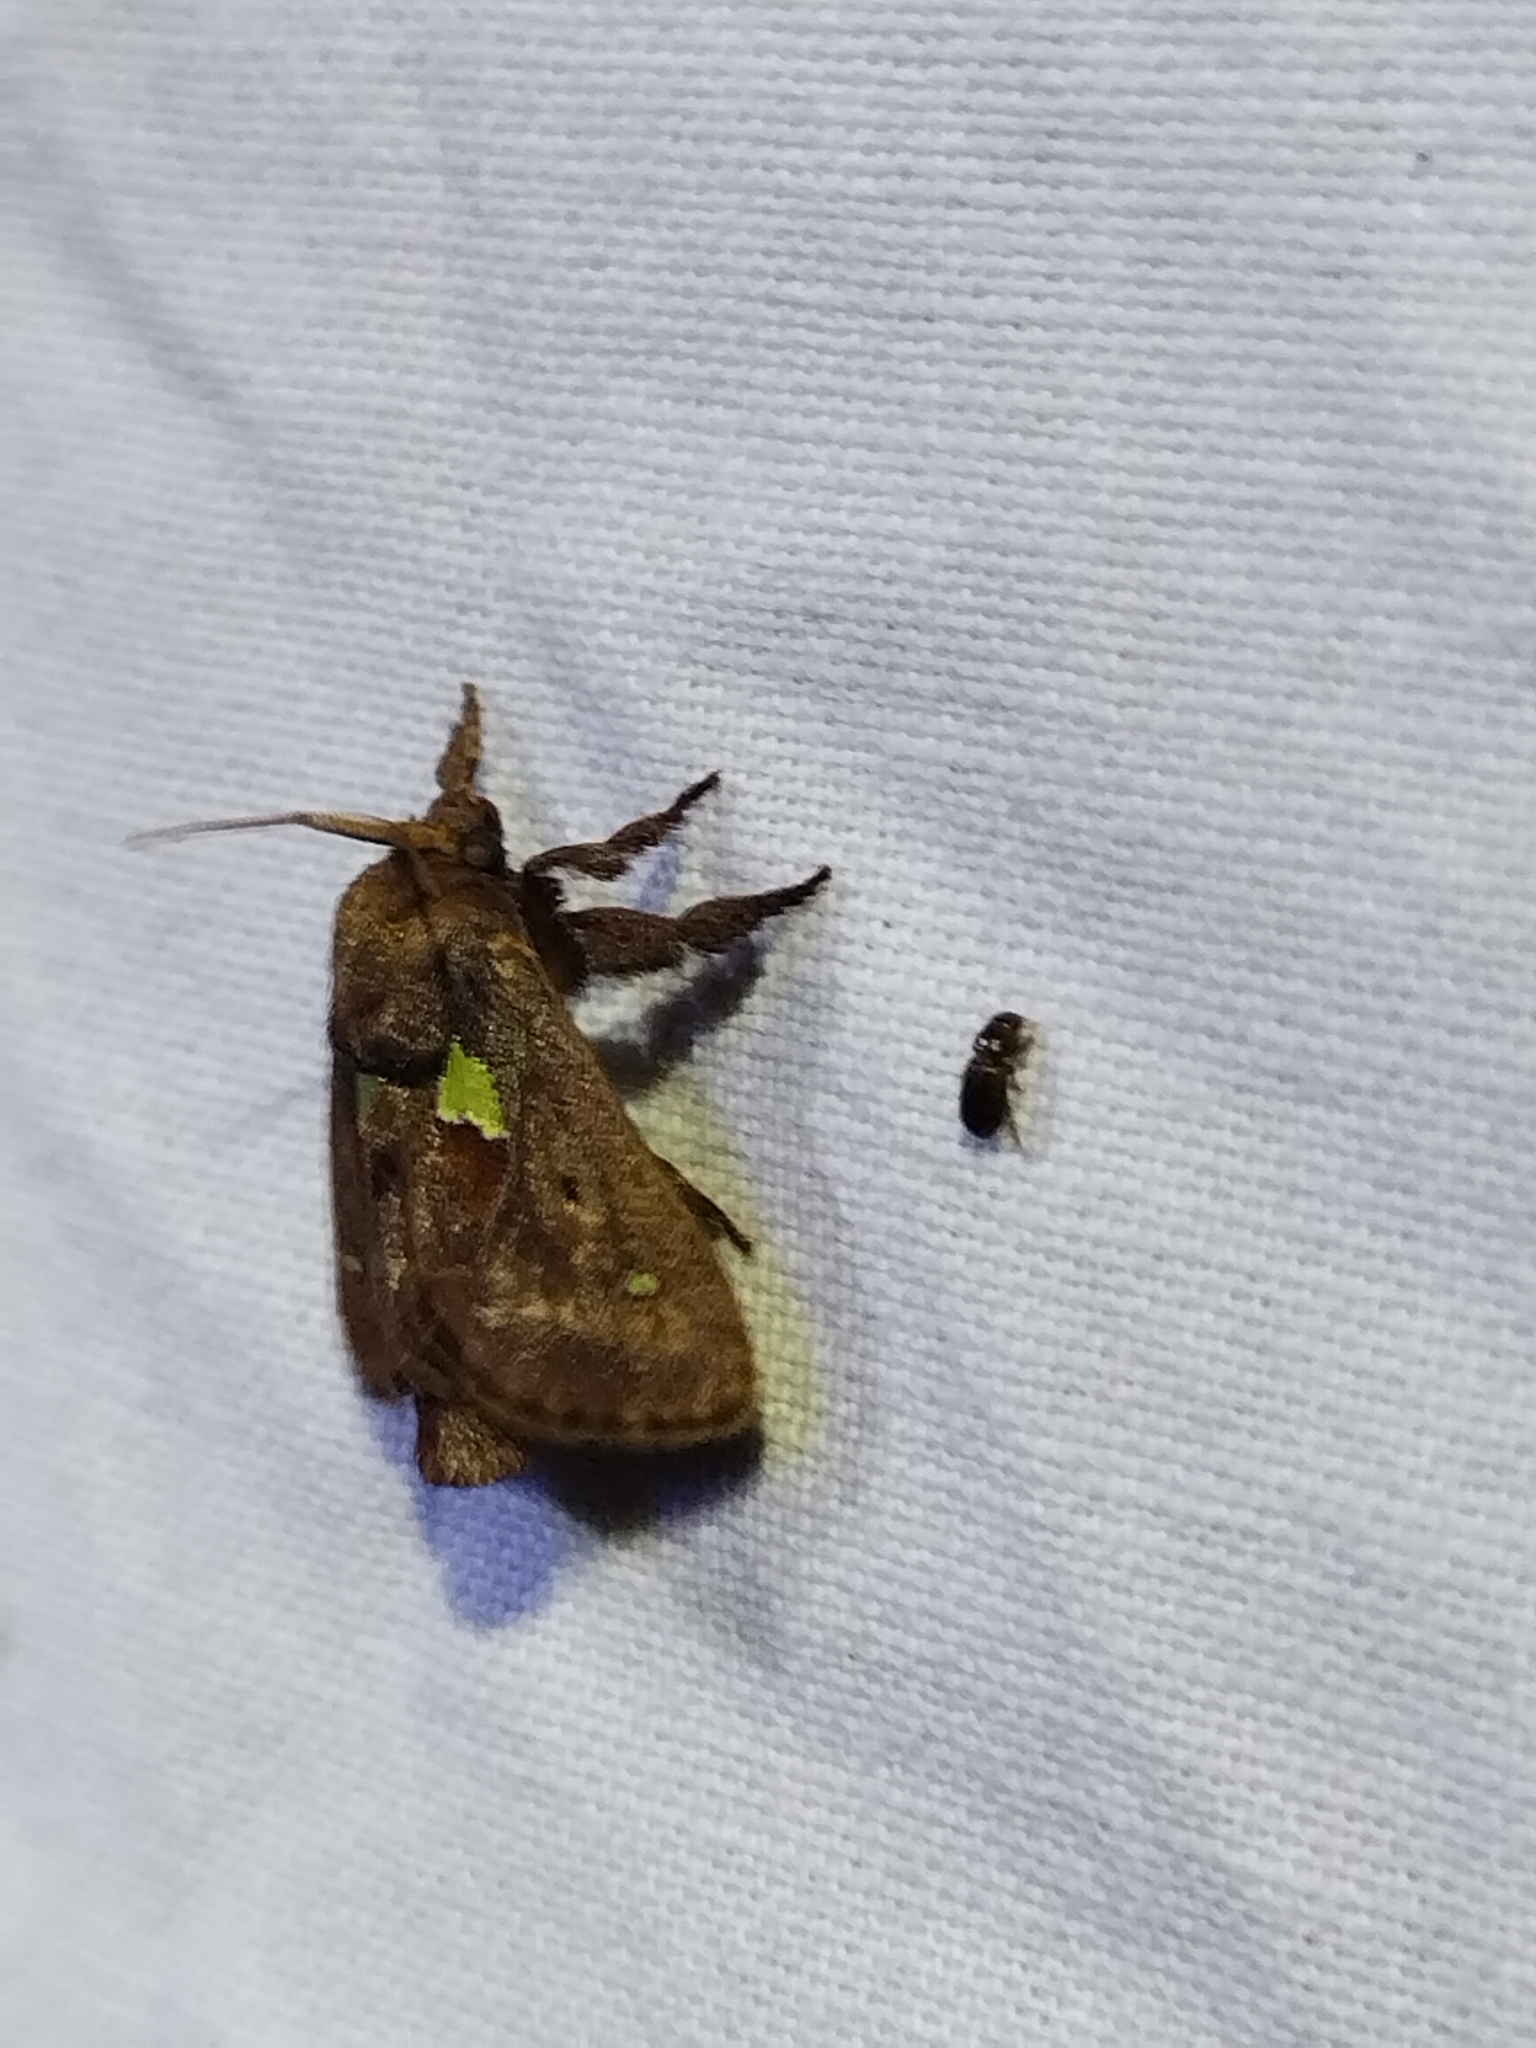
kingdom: Animalia
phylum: Arthropoda
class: Insecta
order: Lepidoptera
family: Limacodidae
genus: Euclea
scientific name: Euclea delphinii
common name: Spiny oak-slug moth
